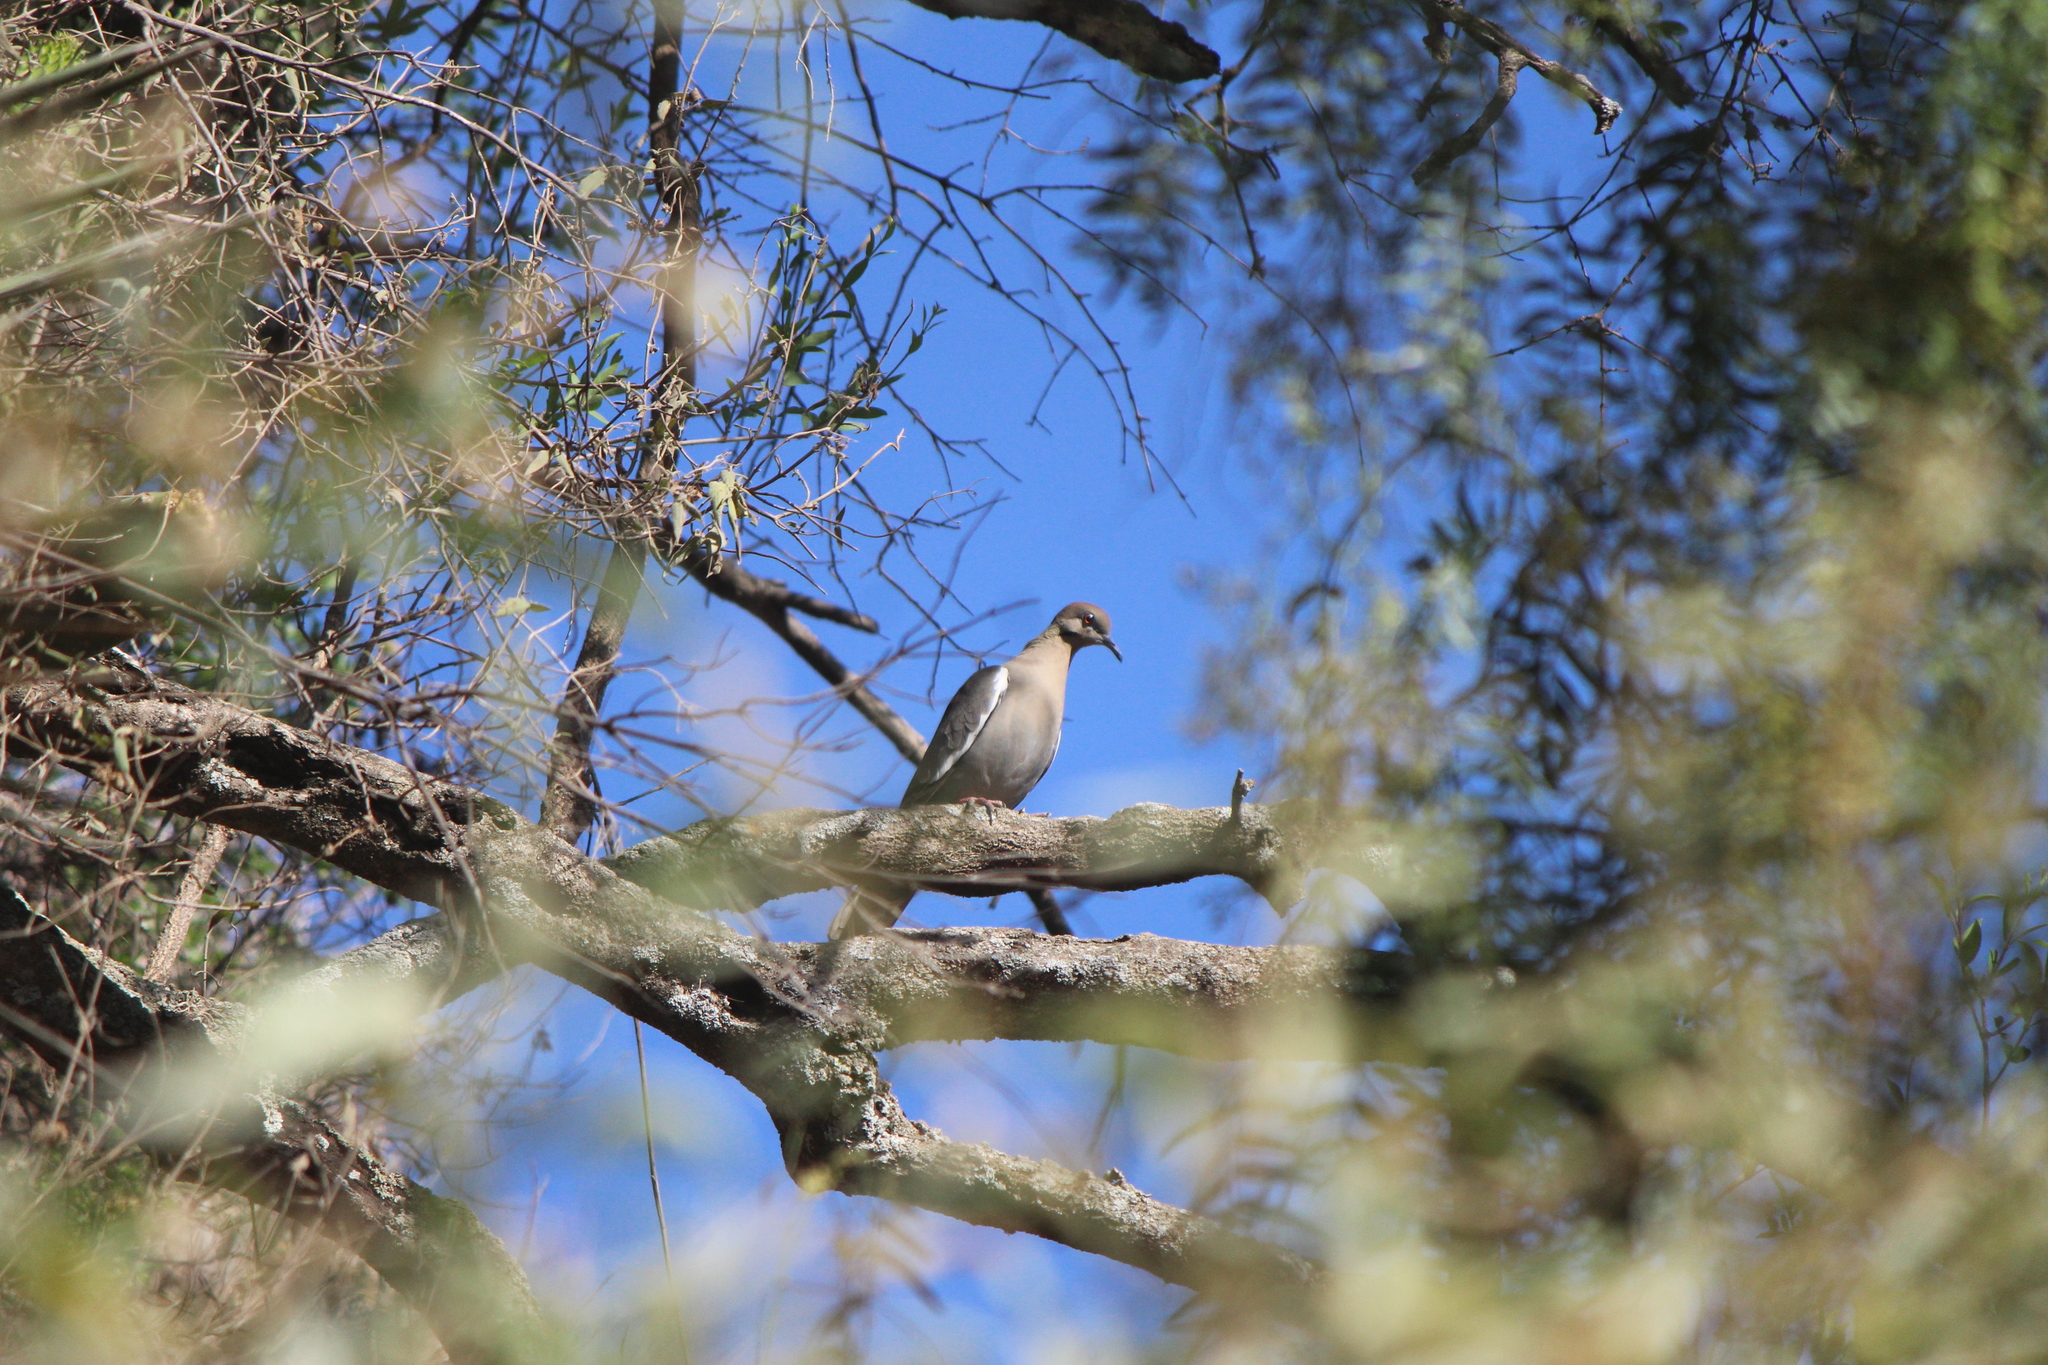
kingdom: Animalia
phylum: Chordata
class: Aves
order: Columbiformes
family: Columbidae
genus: Zenaida
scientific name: Zenaida asiatica
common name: White-winged dove
